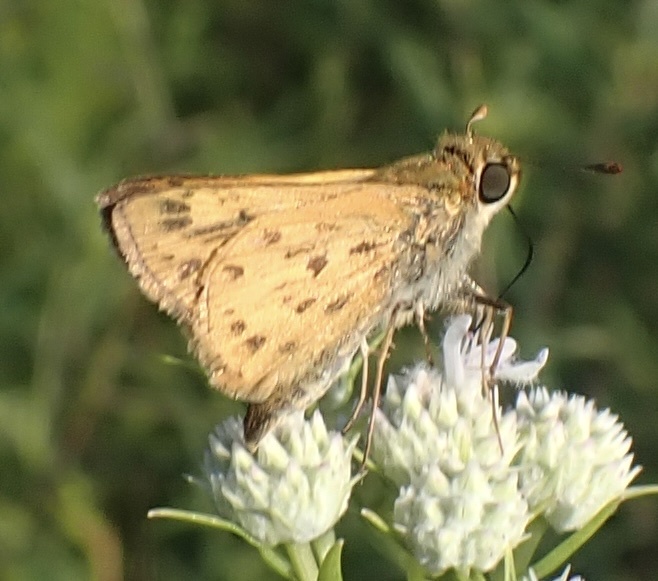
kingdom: Animalia
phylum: Arthropoda
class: Insecta
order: Lepidoptera
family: Hesperiidae
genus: Hylephila
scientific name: Hylephila phyleus
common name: Fiery skipper
